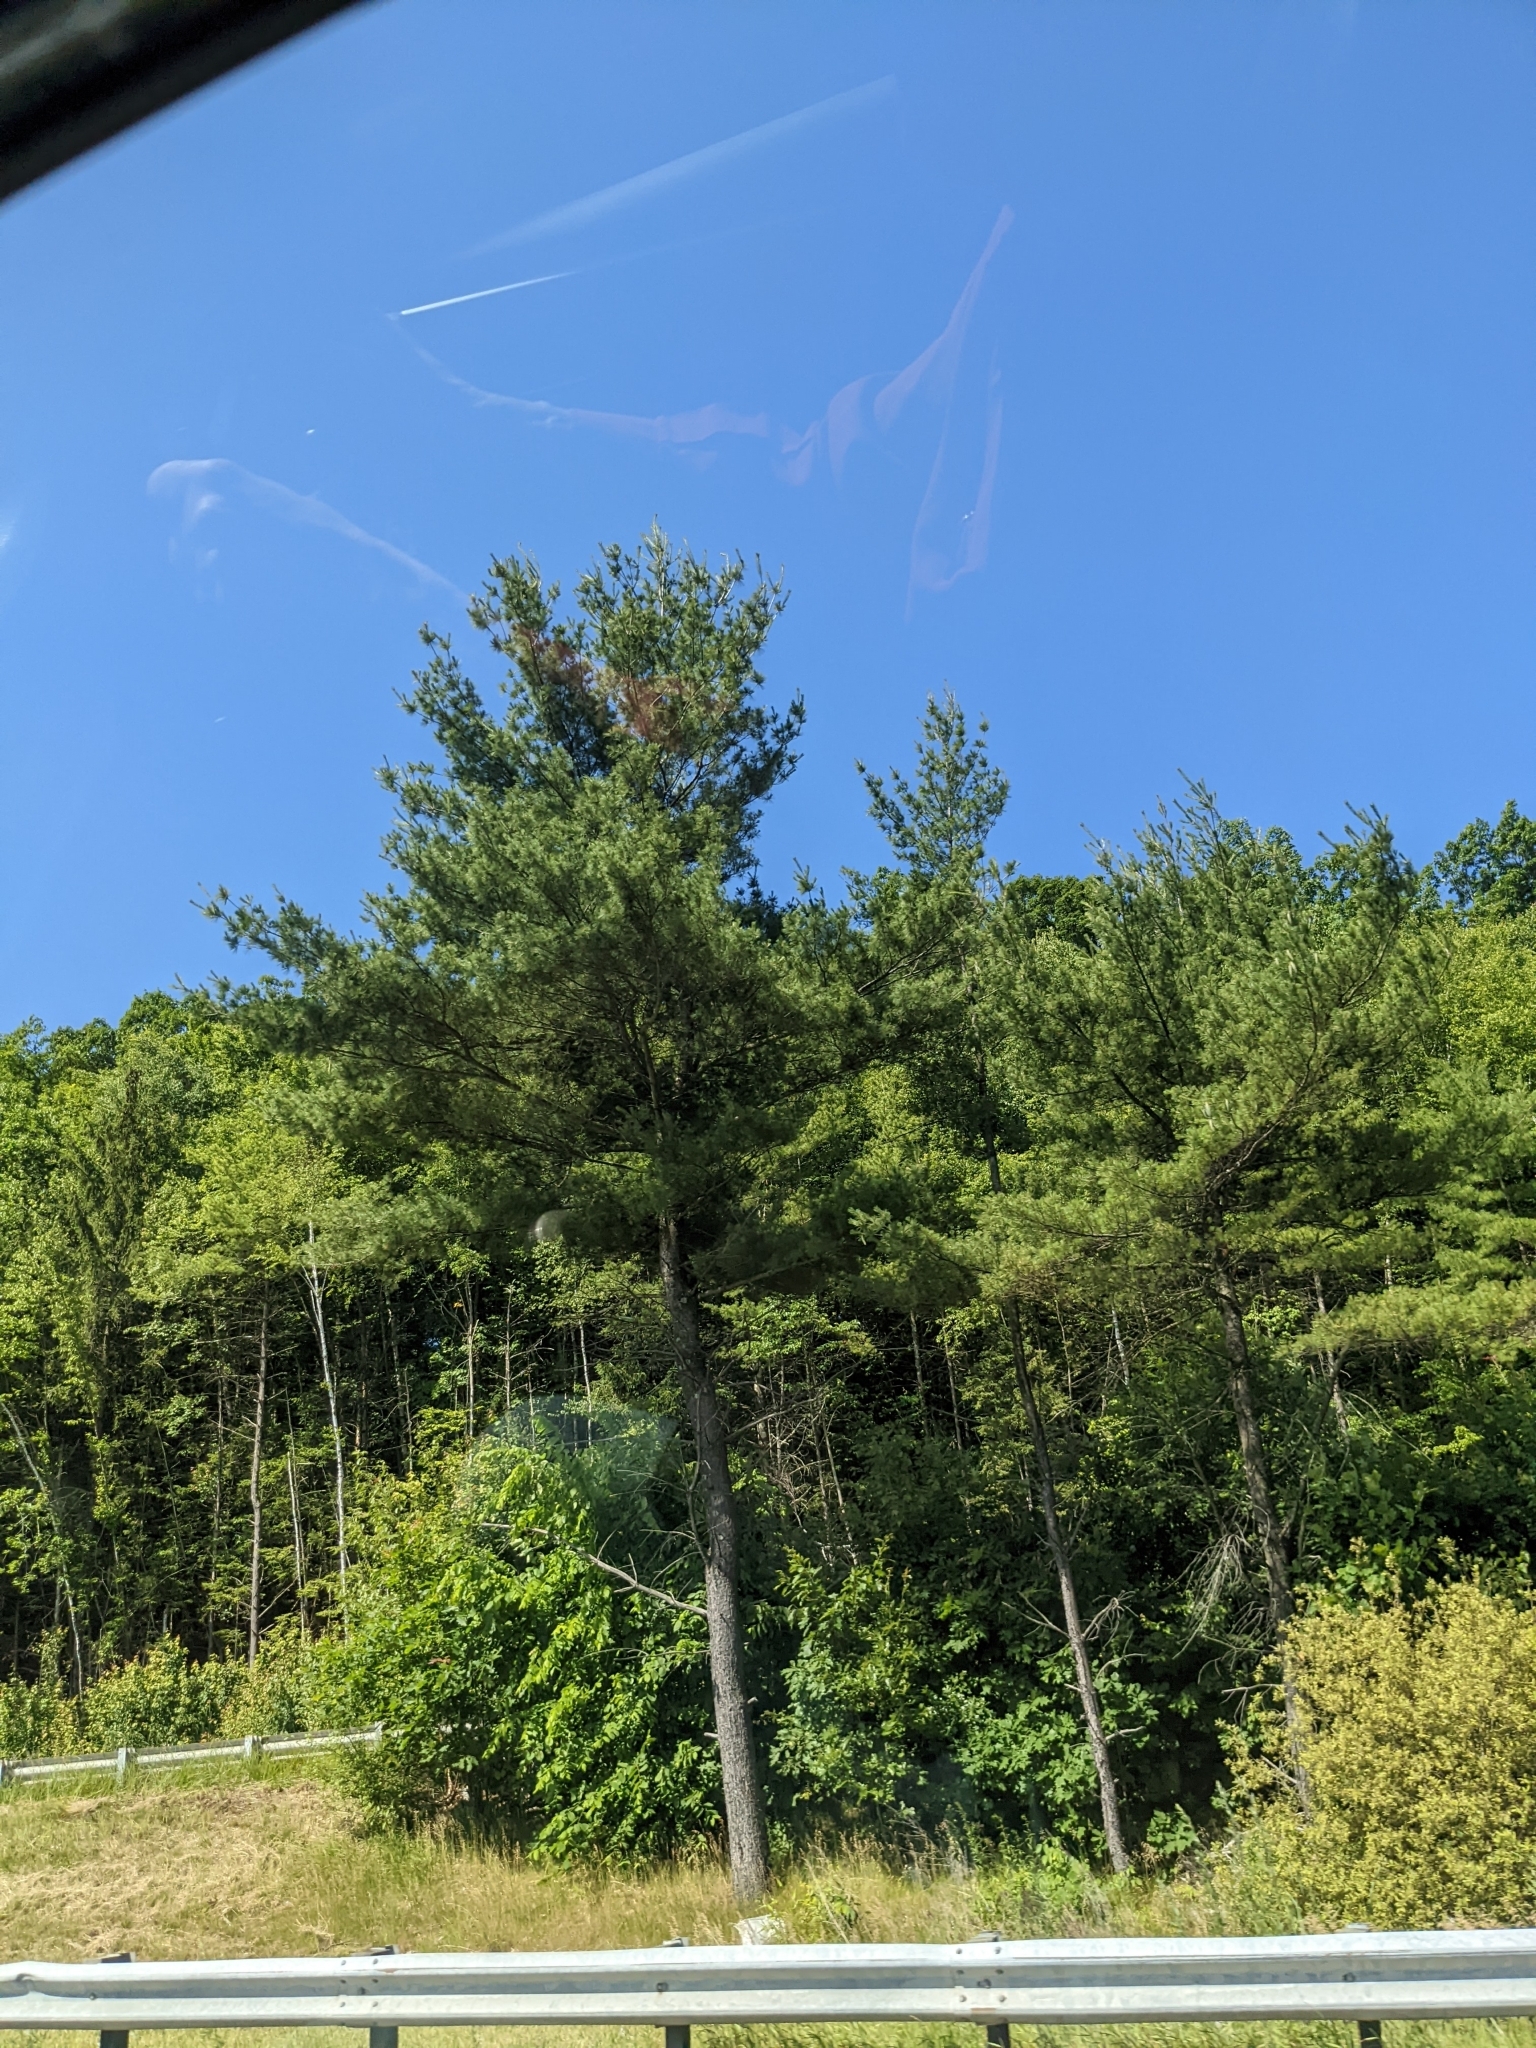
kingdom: Plantae
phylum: Tracheophyta
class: Pinopsida
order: Pinales
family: Pinaceae
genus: Pinus
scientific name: Pinus strobus
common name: Weymouth pine
